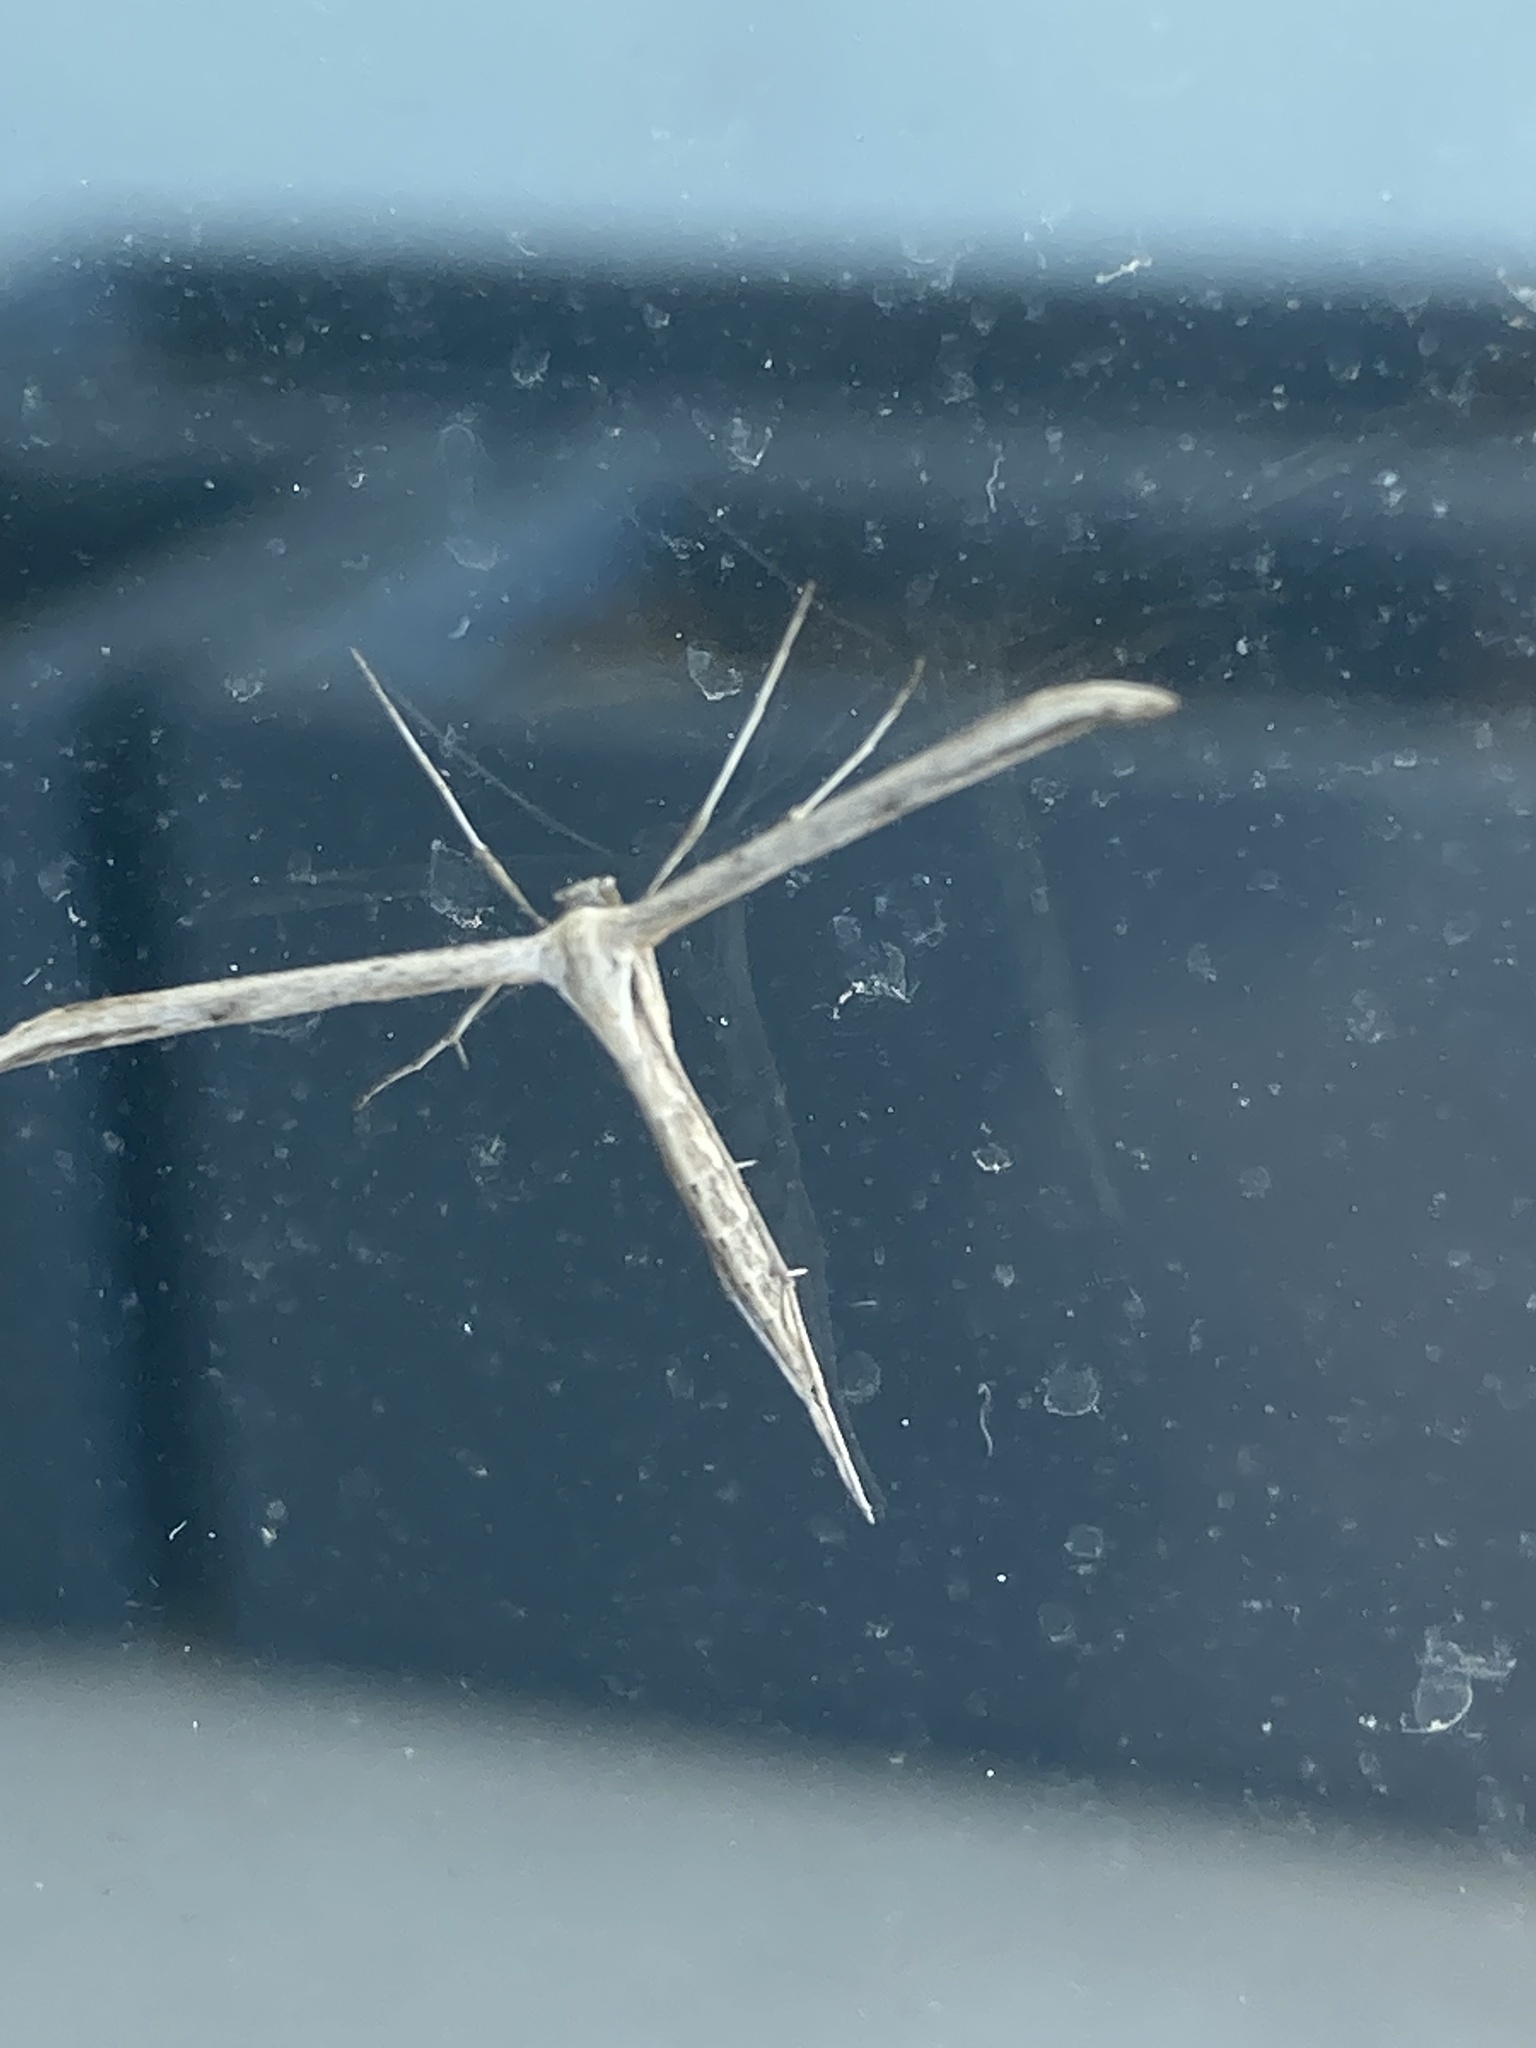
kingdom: Animalia
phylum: Arthropoda
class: Insecta
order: Lepidoptera
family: Pterophoridae
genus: Emmelina
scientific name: Emmelina monodactyla
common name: Common plume
